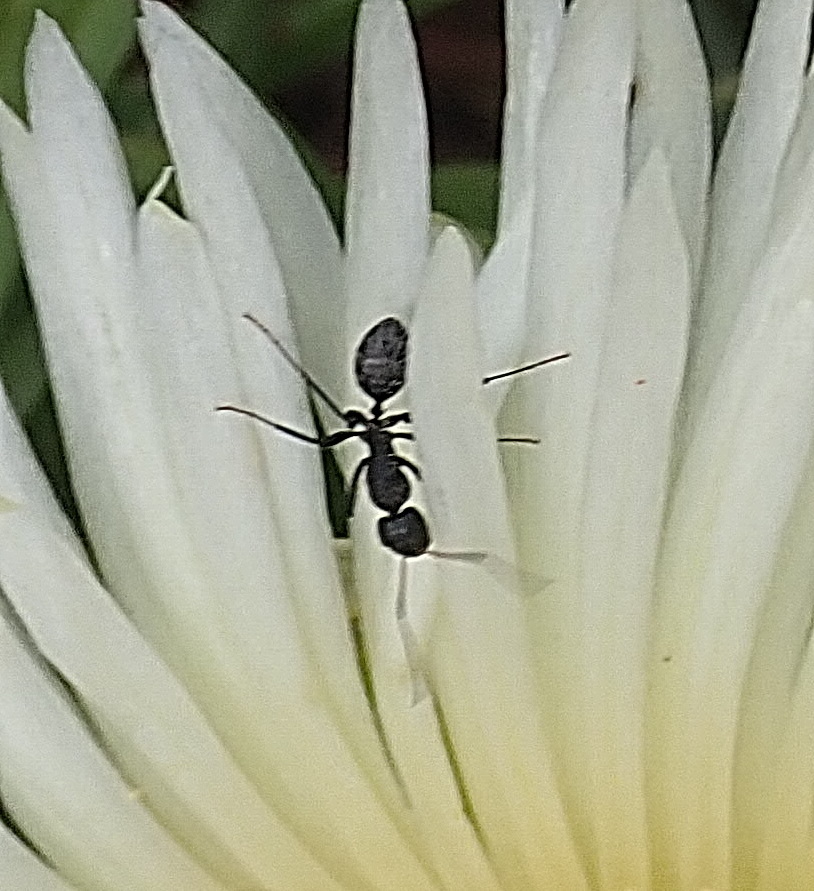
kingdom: Animalia
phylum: Arthropoda
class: Insecta
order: Hymenoptera
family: Formicidae
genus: Camponotus
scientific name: Camponotus niveosetosus
